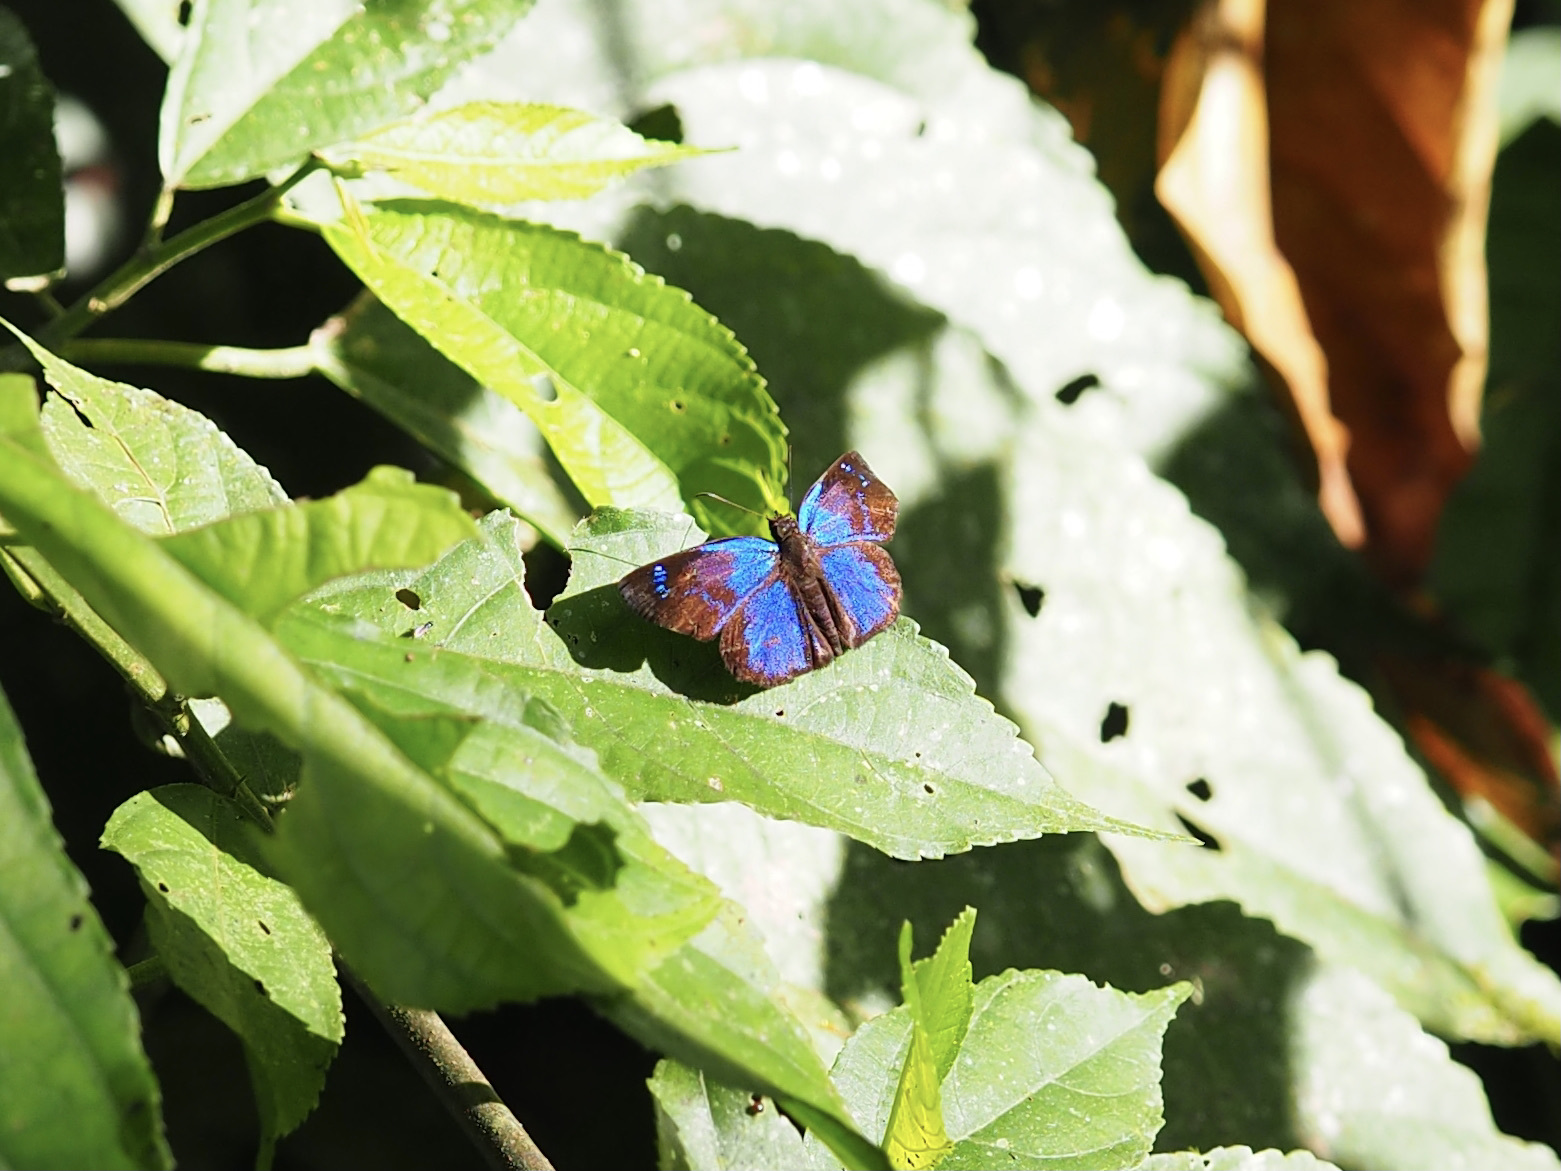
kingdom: Animalia
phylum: Arthropoda
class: Insecta
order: Lepidoptera
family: Hesperiidae
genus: Paches
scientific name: Paches loxus
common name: Glorious blue-skipper
